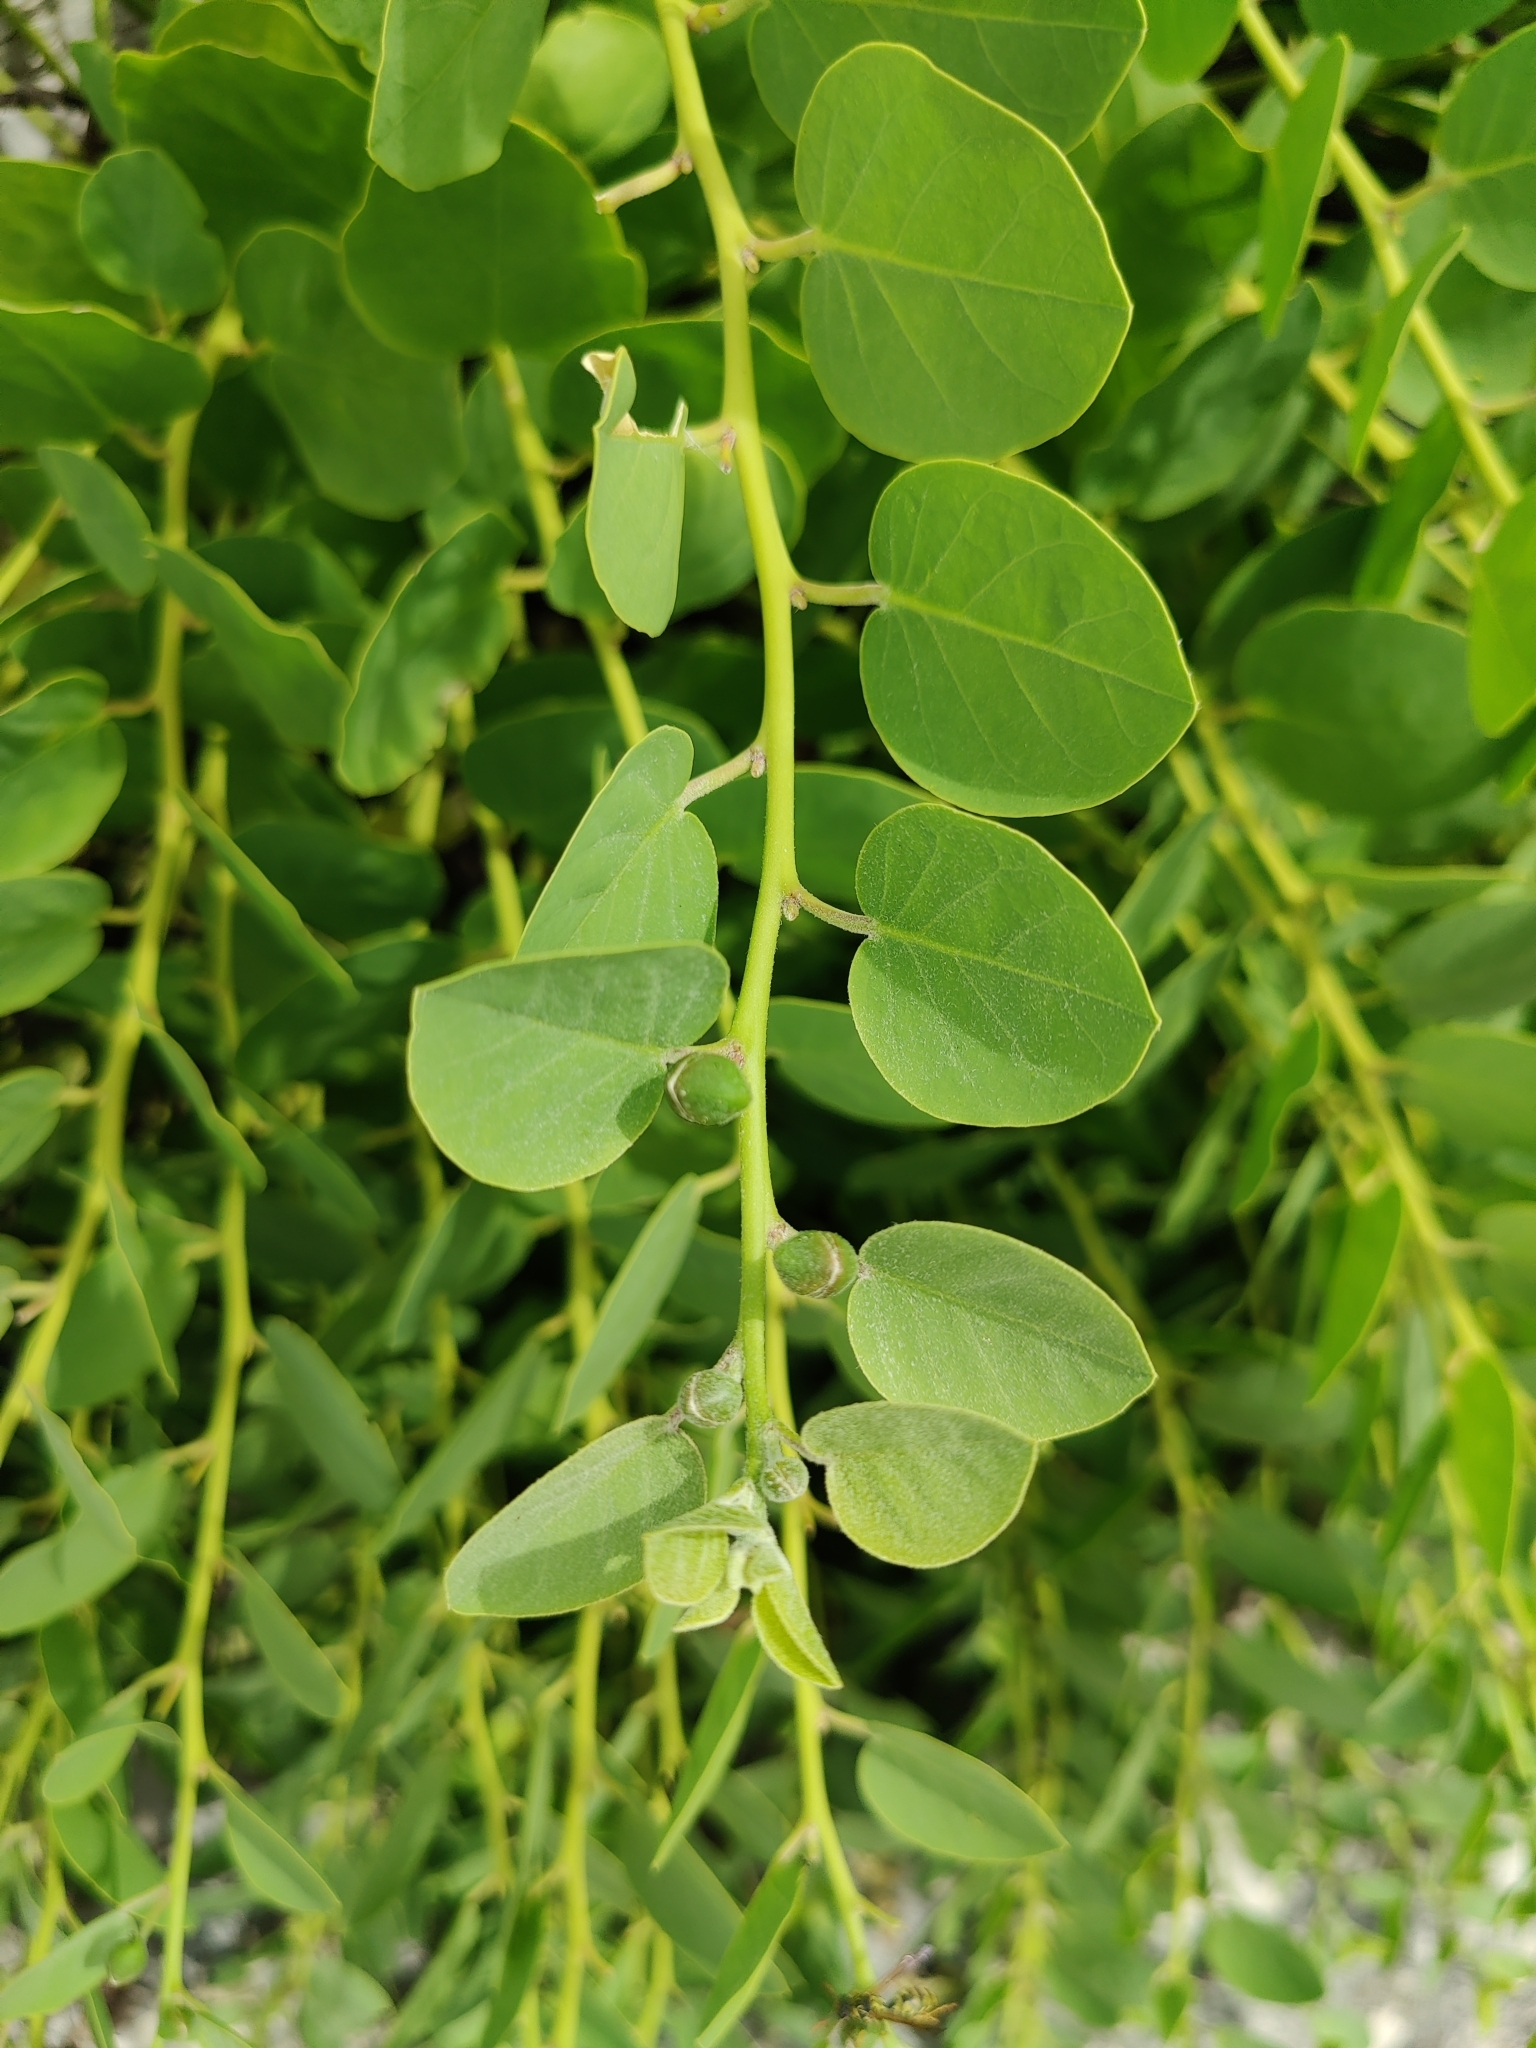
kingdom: Plantae
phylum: Tracheophyta
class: Magnoliopsida
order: Brassicales
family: Capparaceae
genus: Capparis
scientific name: Capparis orientalis
